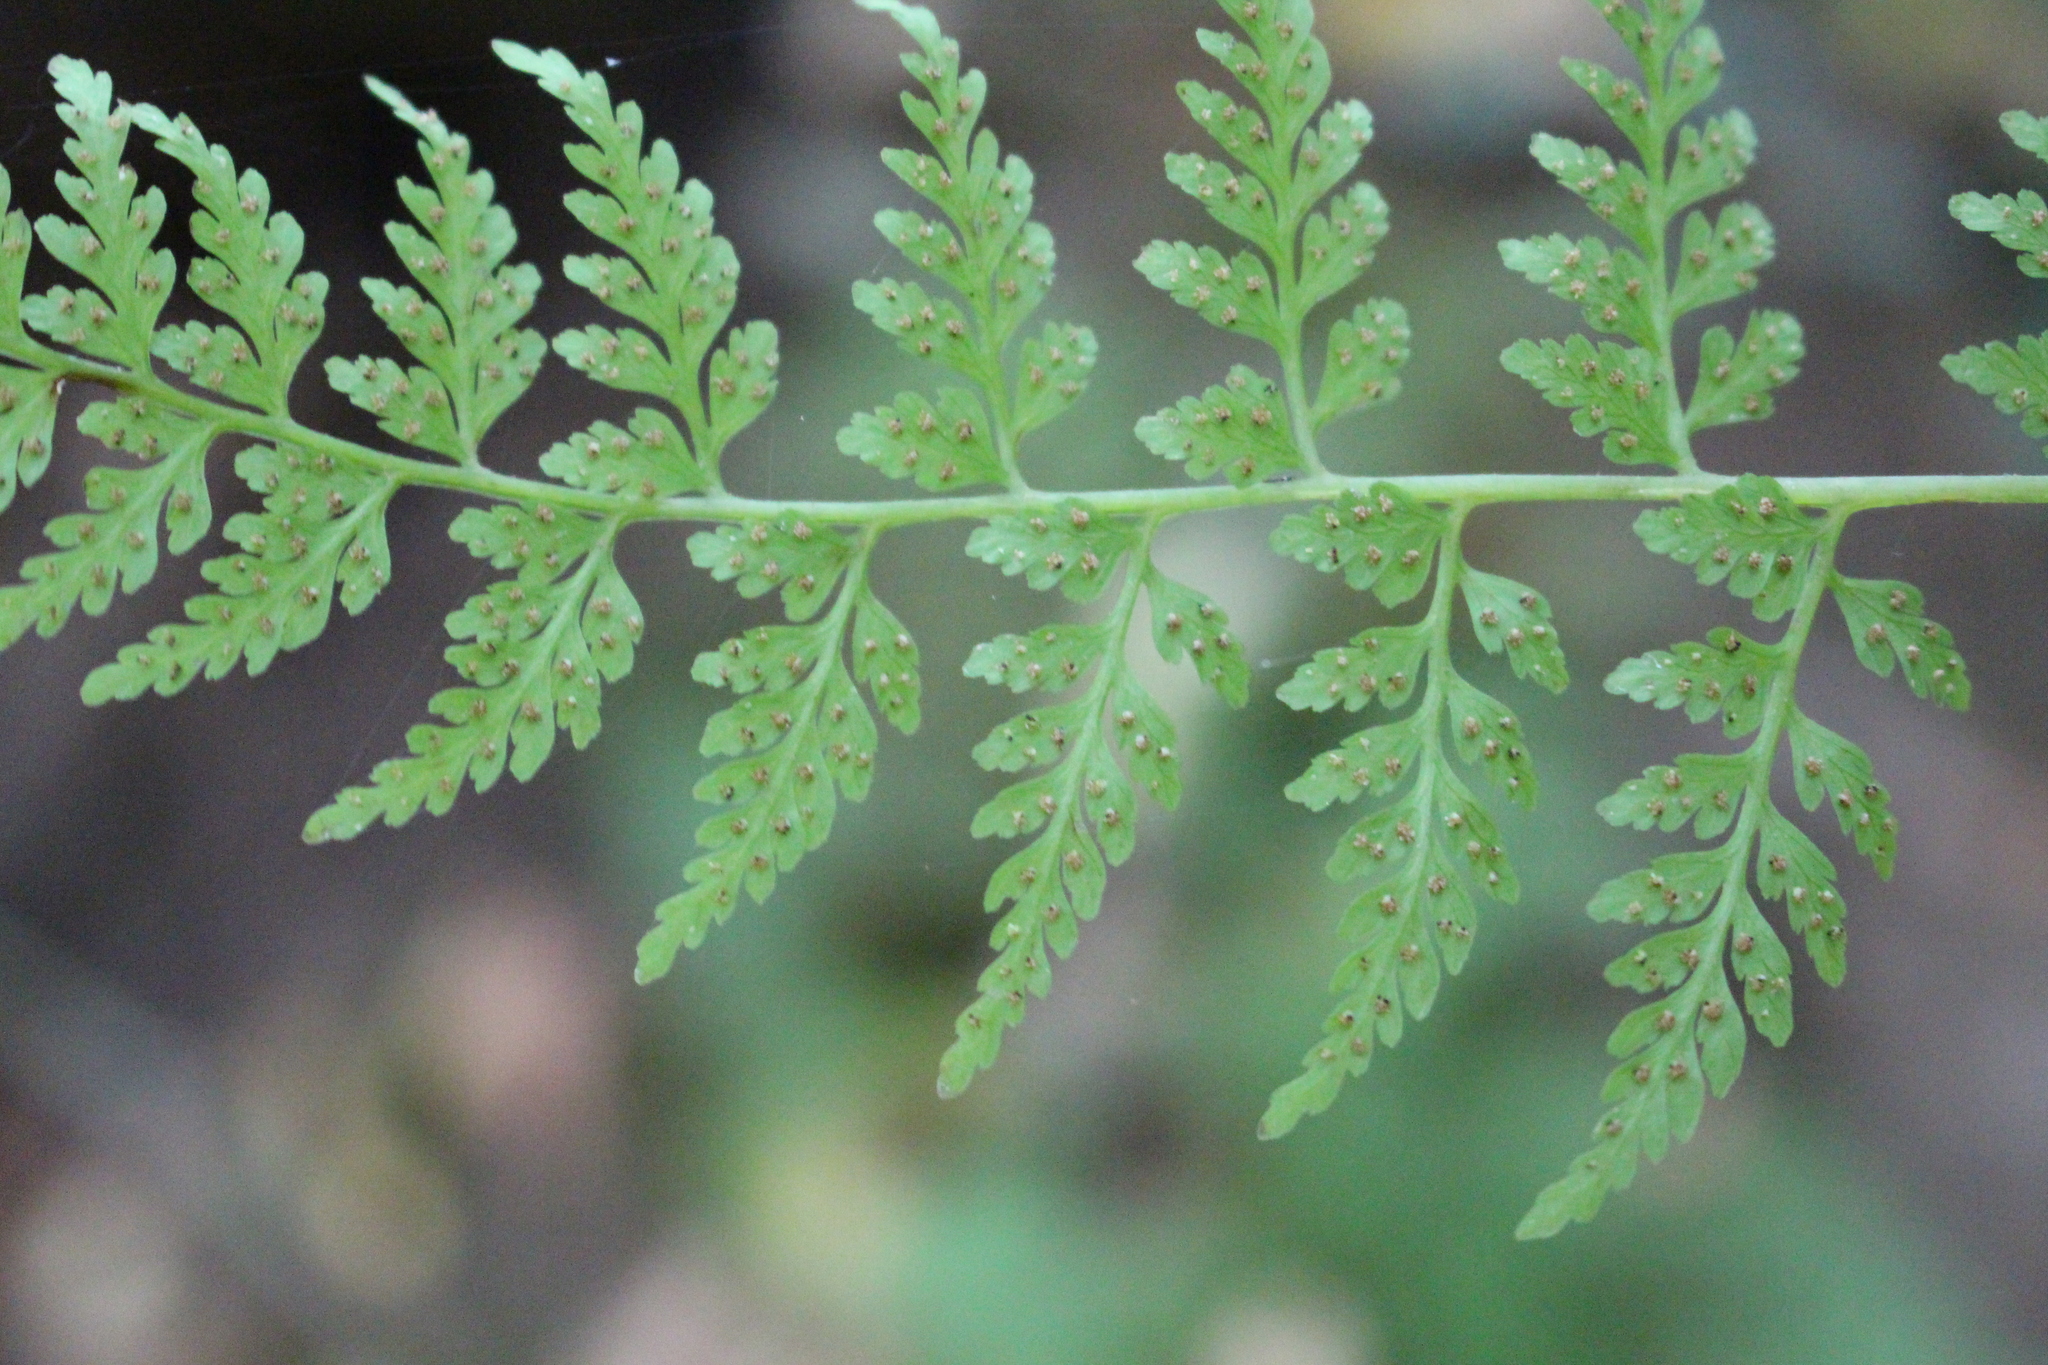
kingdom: Plantae
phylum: Tracheophyta
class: Polypodiopsida
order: Polypodiales
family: Cystopteridaceae
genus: Cystopteris
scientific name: Cystopteris fragilis
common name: Brittle bladder fern
